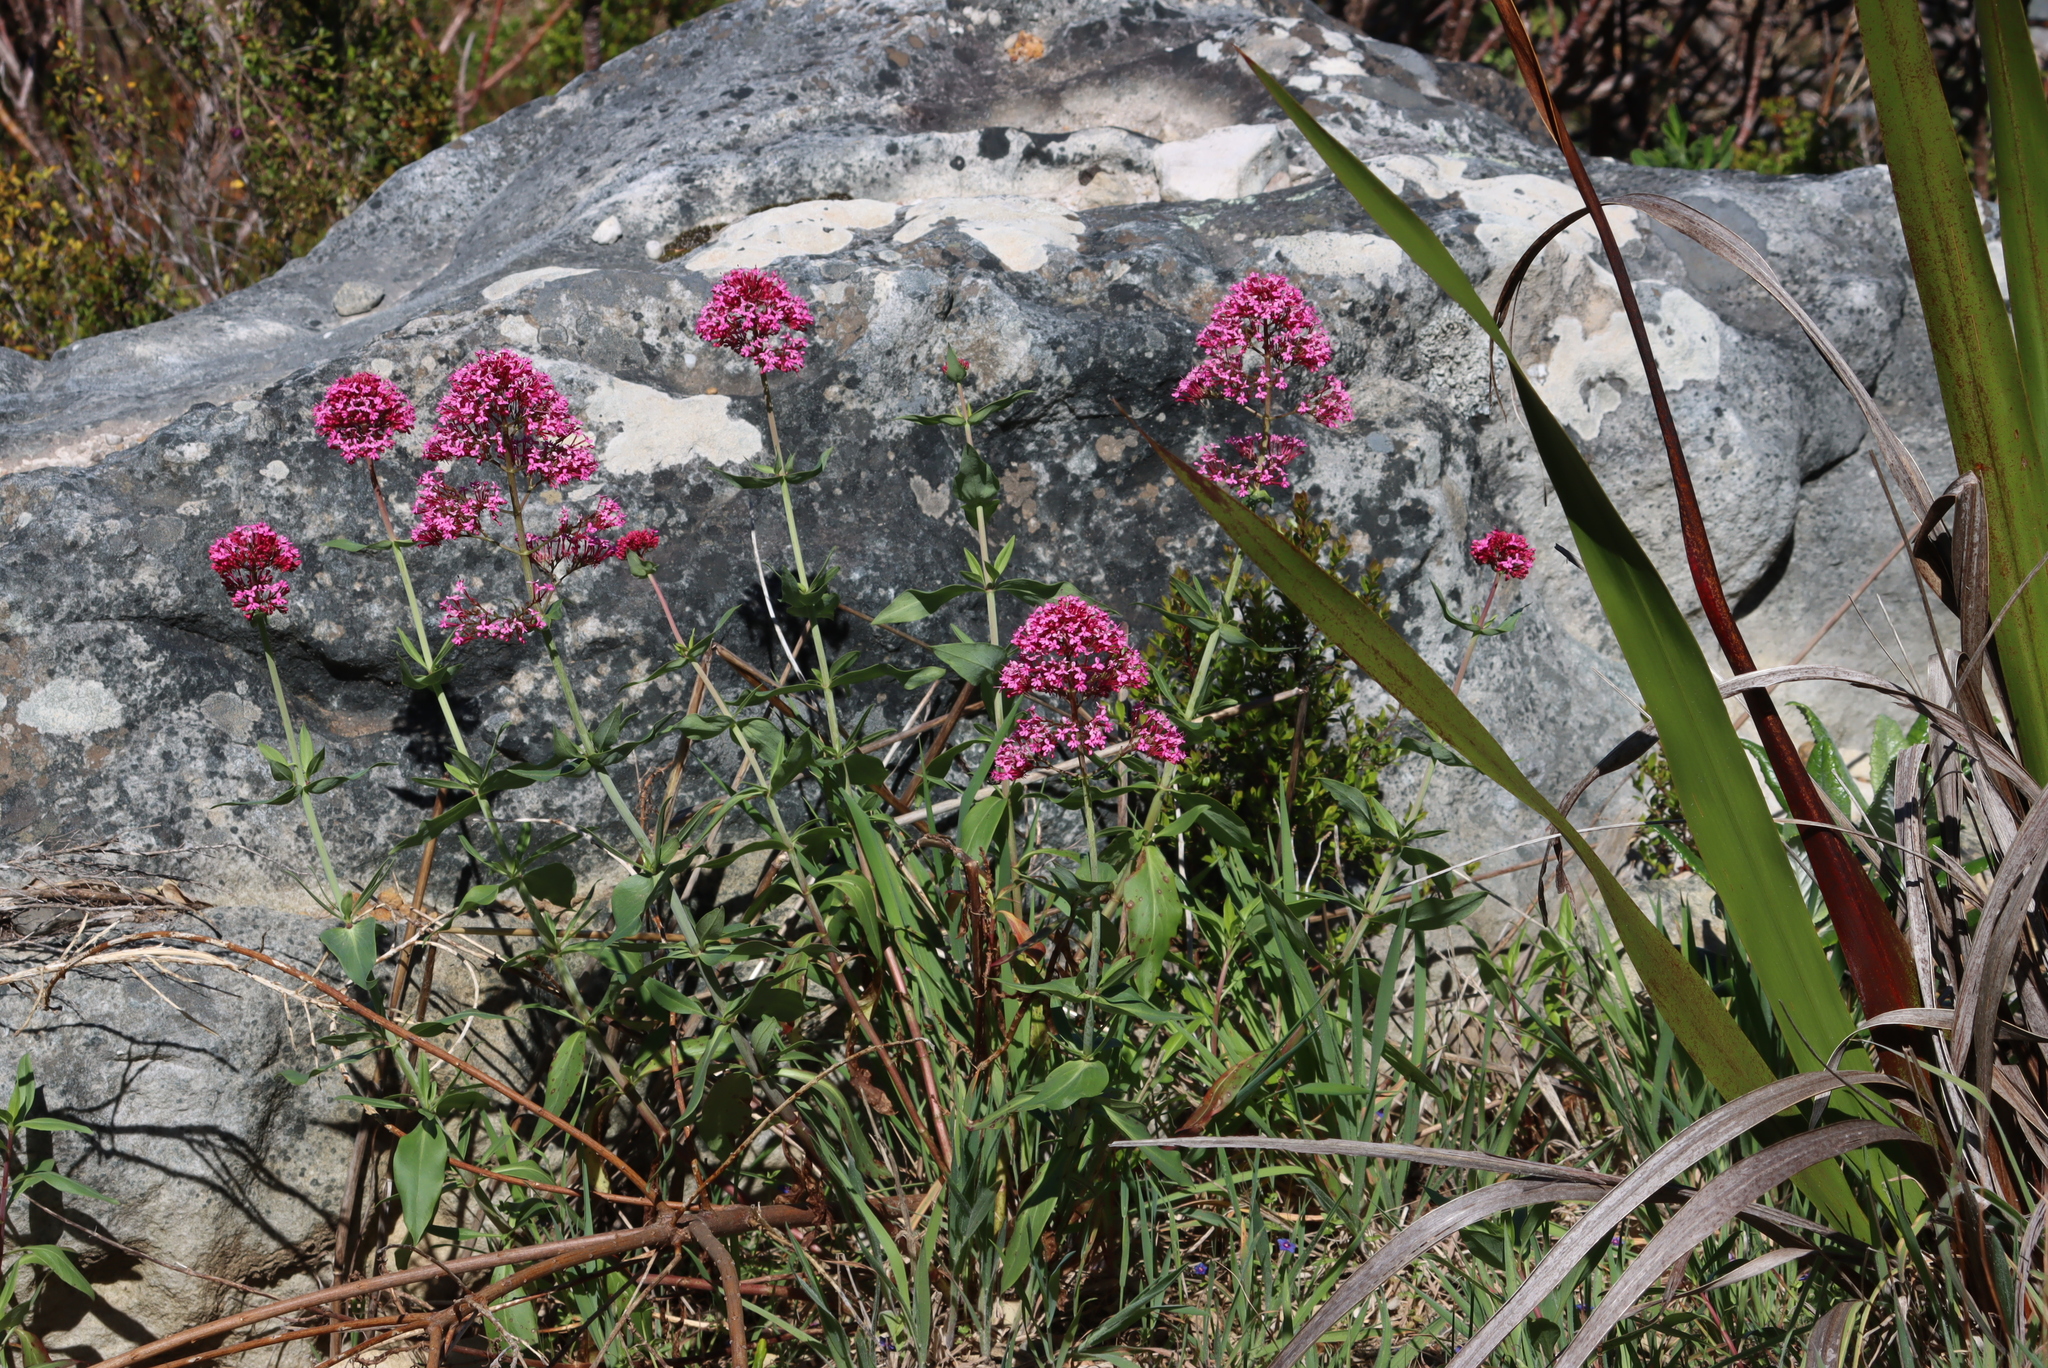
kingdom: Plantae
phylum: Tracheophyta
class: Magnoliopsida
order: Dipsacales
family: Caprifoliaceae
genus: Centranthus
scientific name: Centranthus ruber
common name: Red valerian
